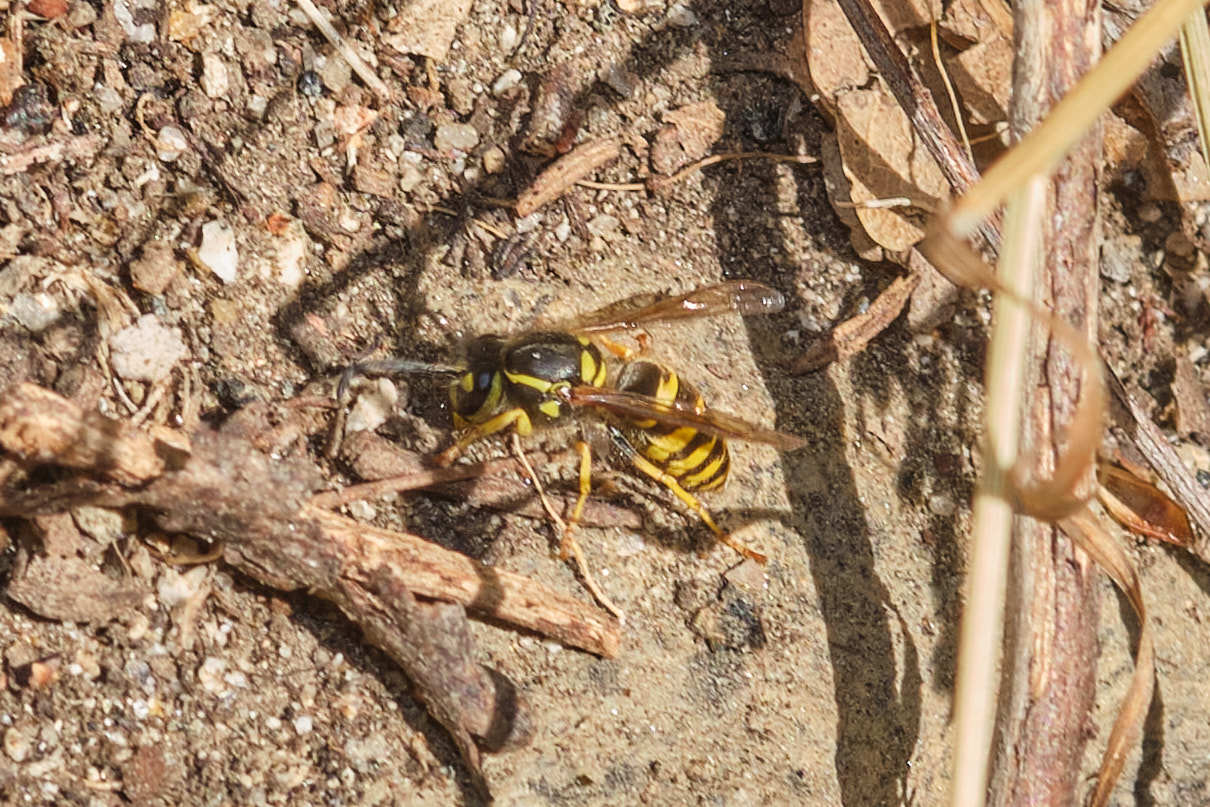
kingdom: Animalia
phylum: Arthropoda
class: Insecta
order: Hymenoptera
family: Vespidae
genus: Vespula
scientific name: Vespula alascensis
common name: Alaska yellowjacket
